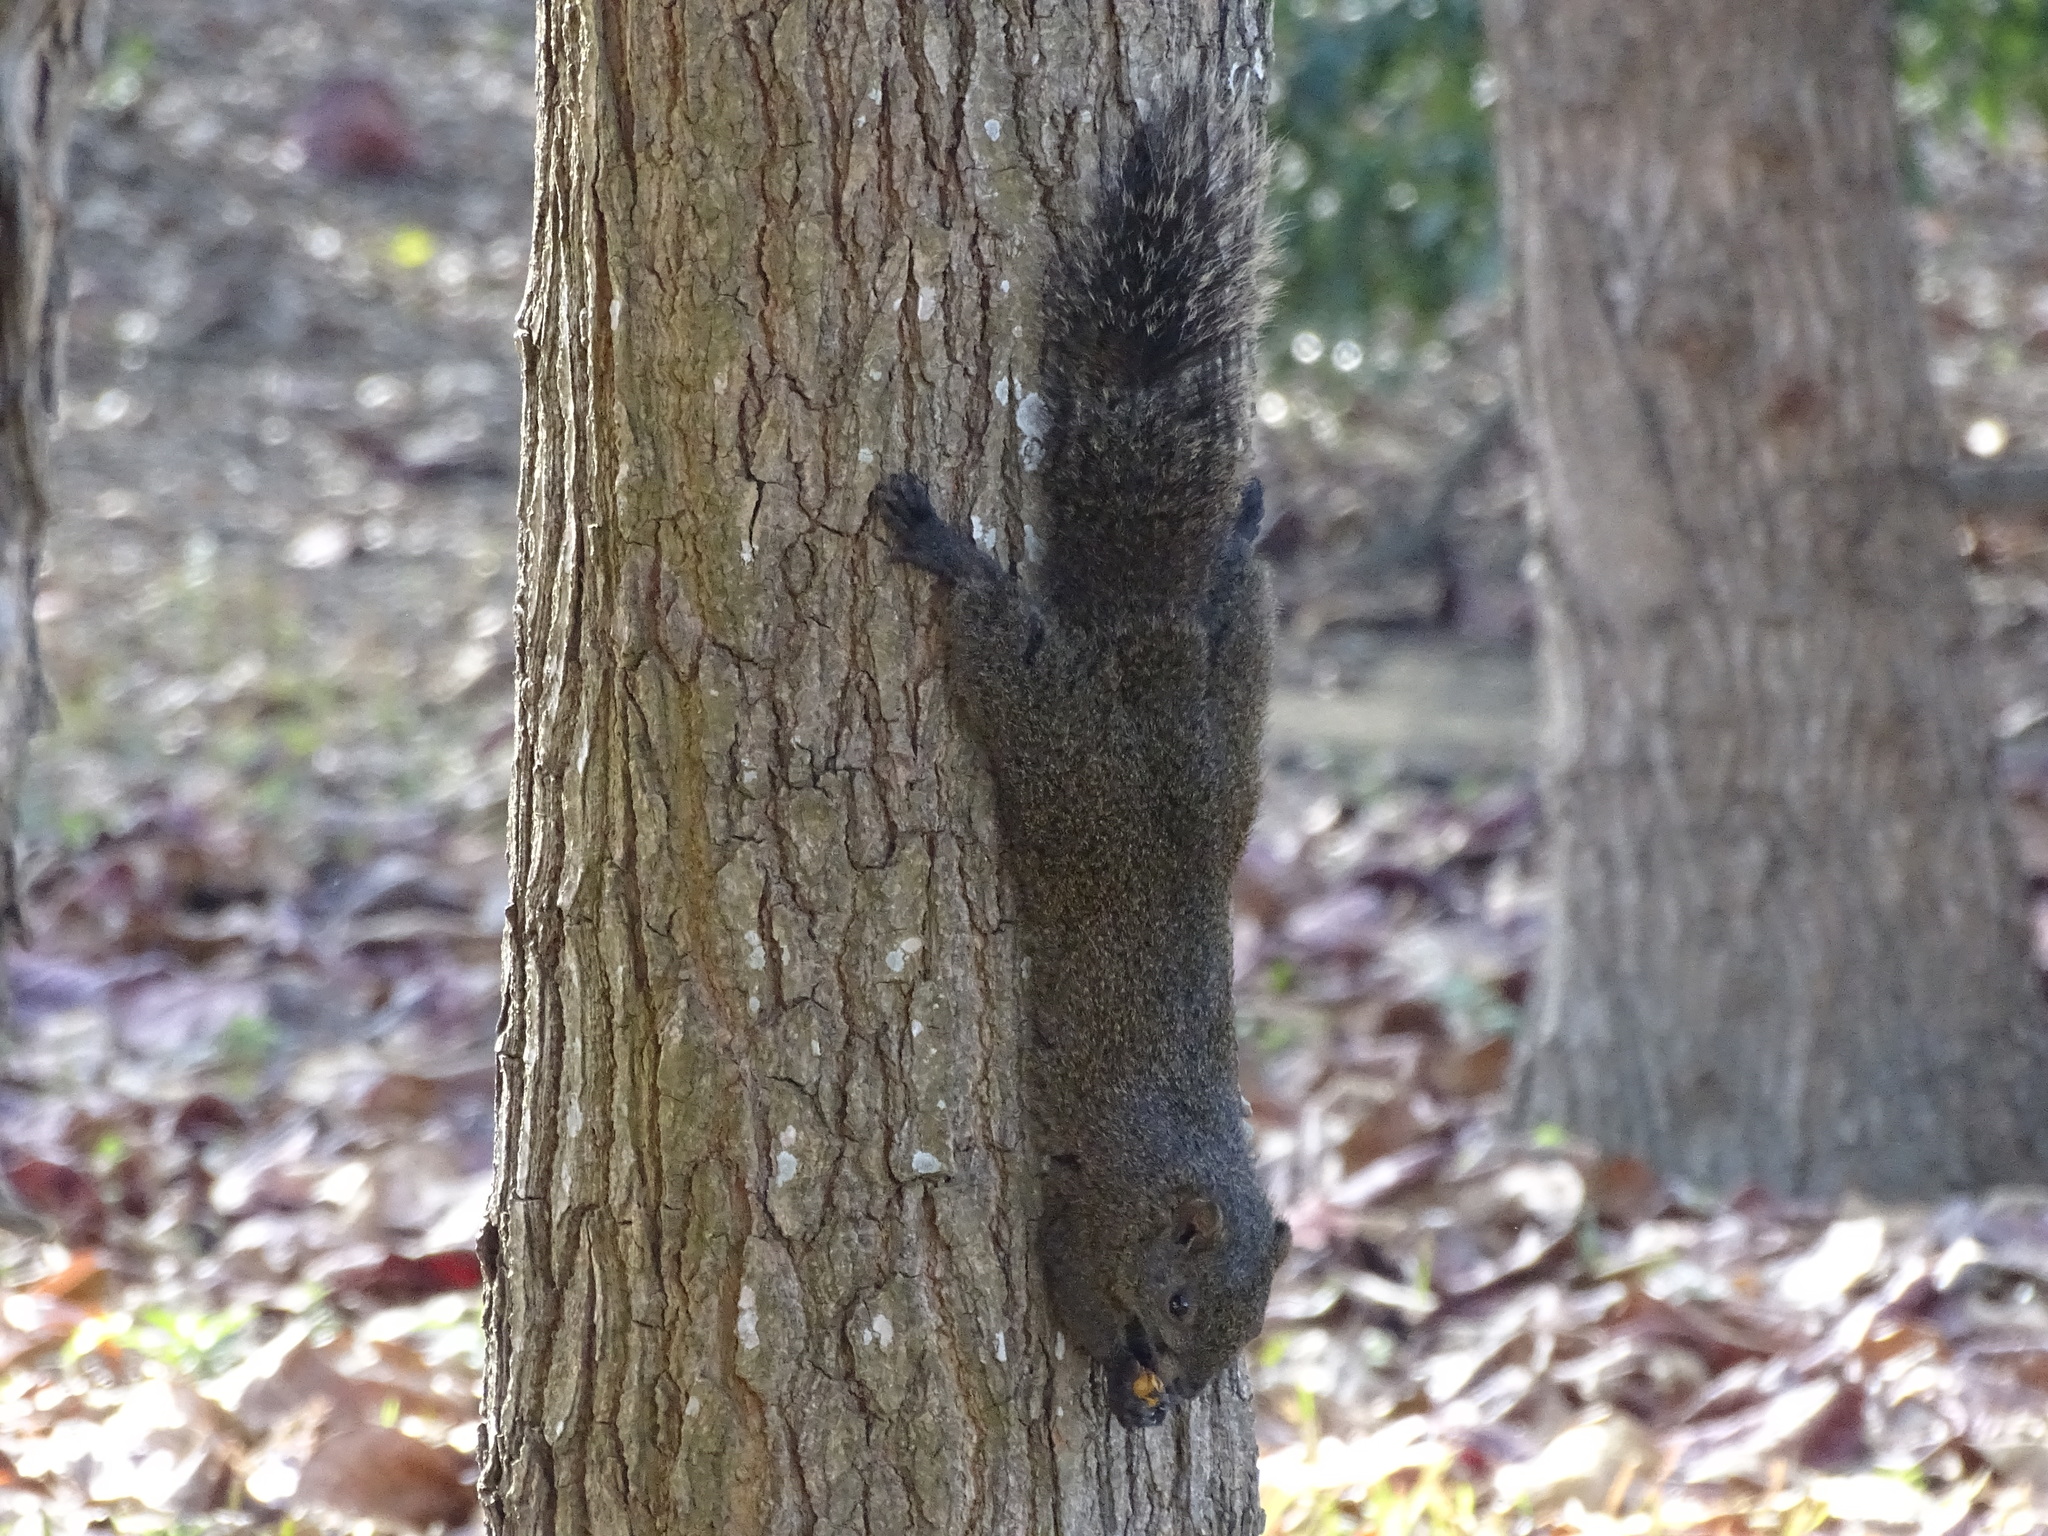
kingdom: Animalia
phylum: Chordata
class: Mammalia
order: Rodentia
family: Sciuridae
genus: Callosciurus
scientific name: Callosciurus erythraeus
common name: Pallas's squirrel
